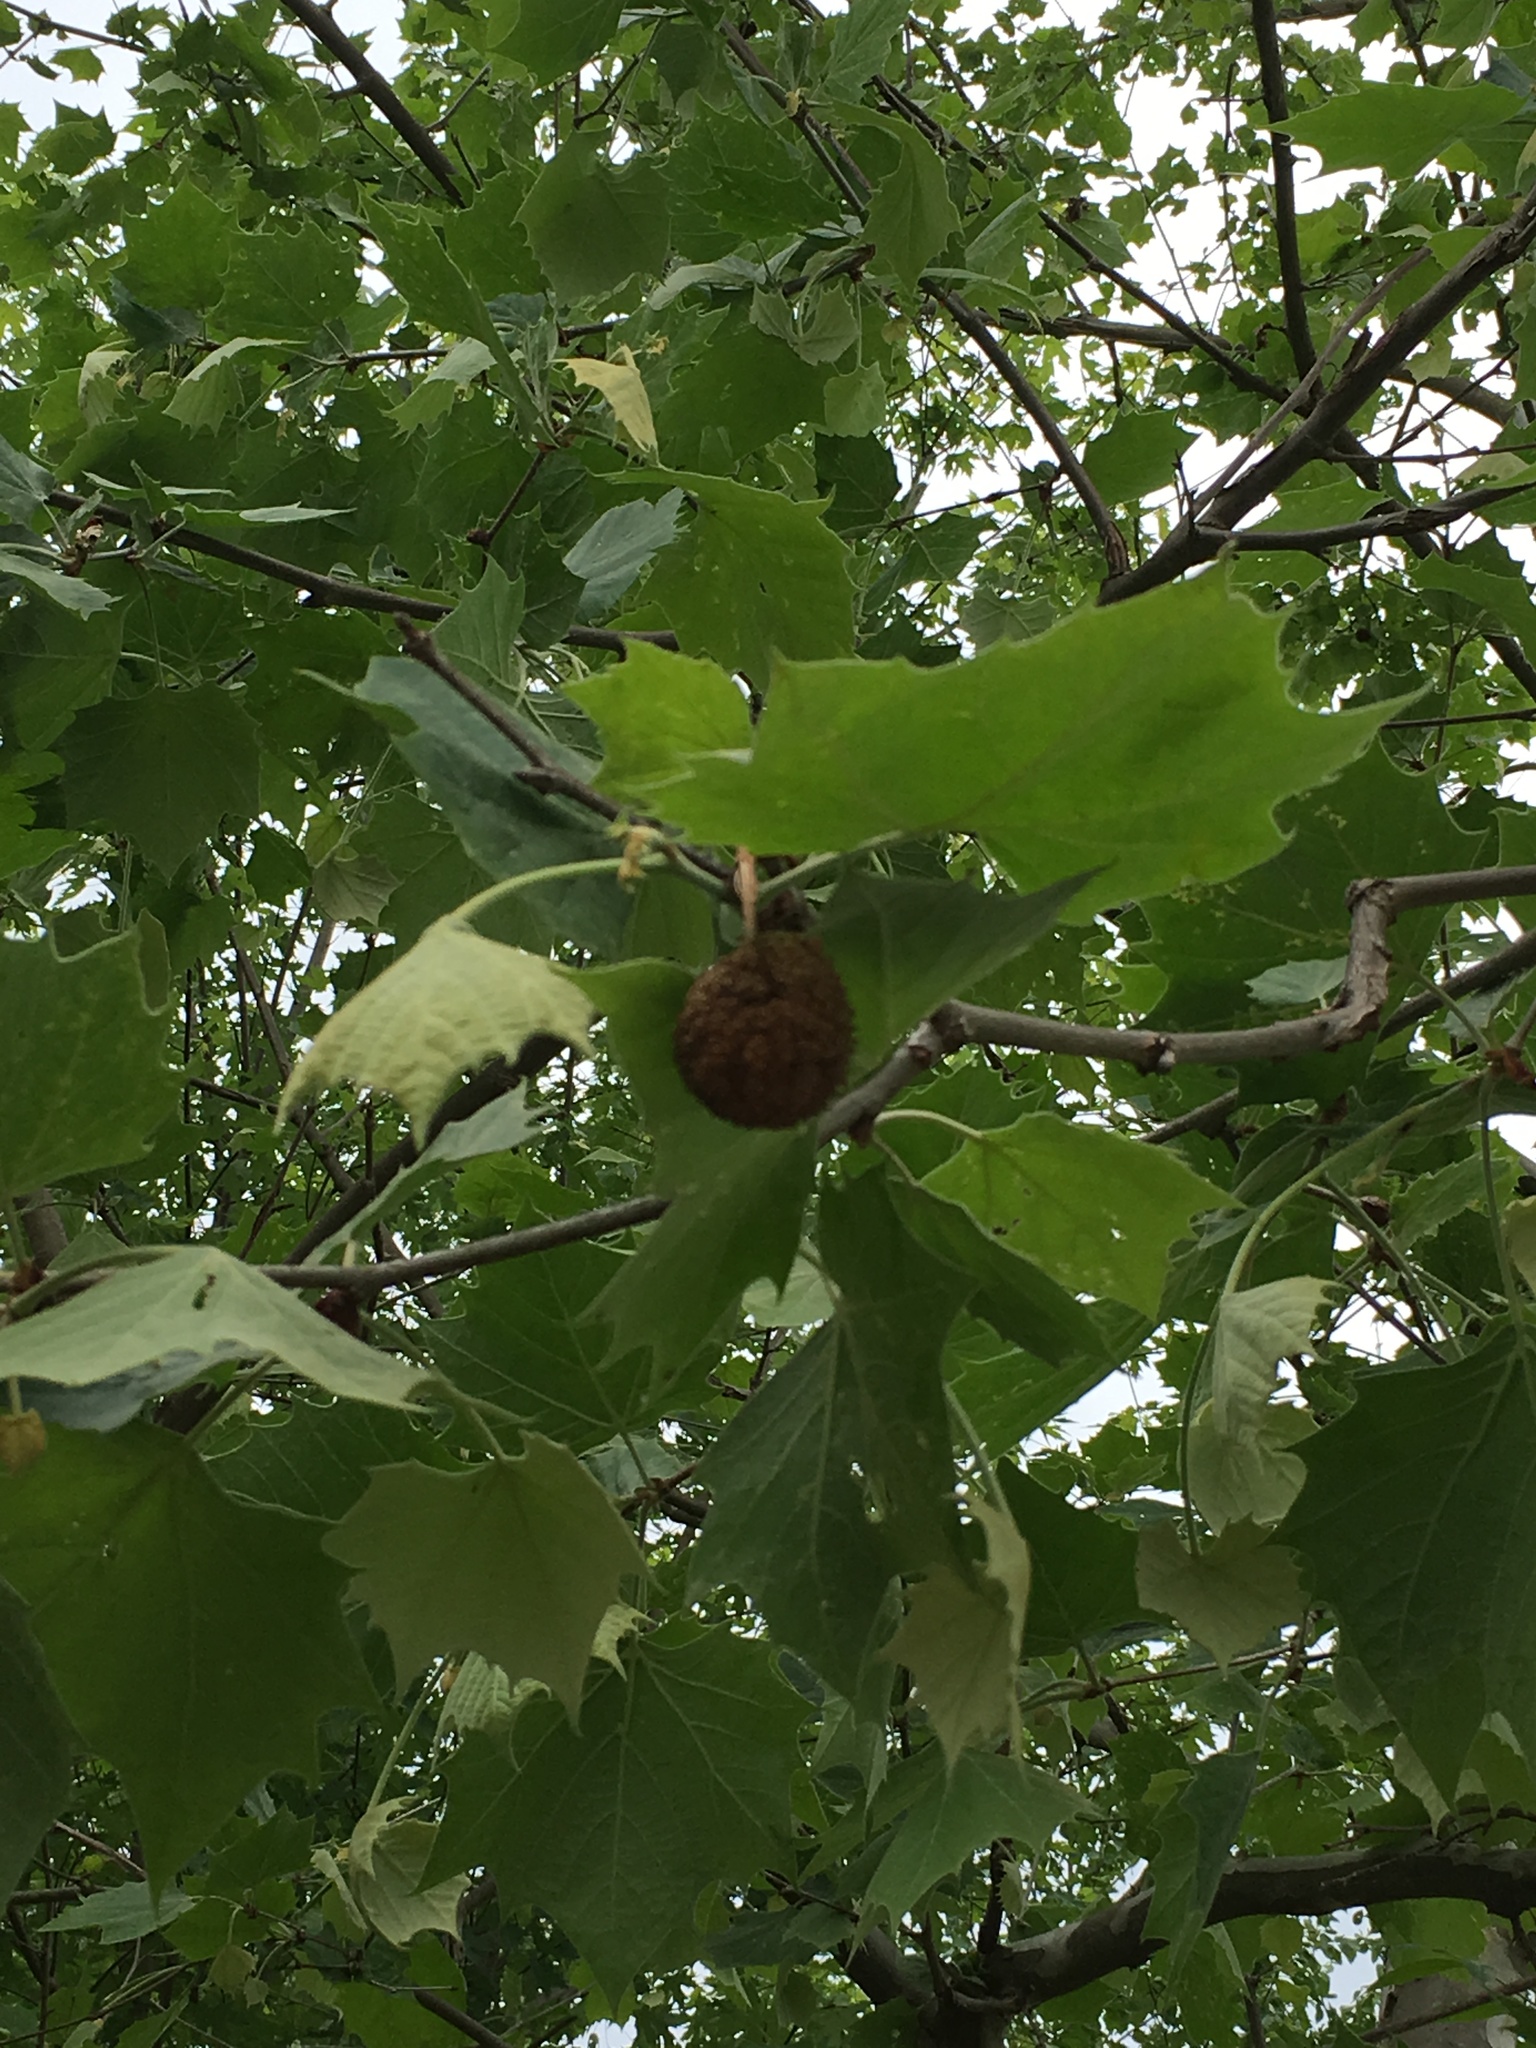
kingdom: Plantae
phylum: Tracheophyta
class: Magnoliopsida
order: Proteales
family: Platanaceae
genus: Platanus
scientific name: Platanus occidentalis
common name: American sycamore
